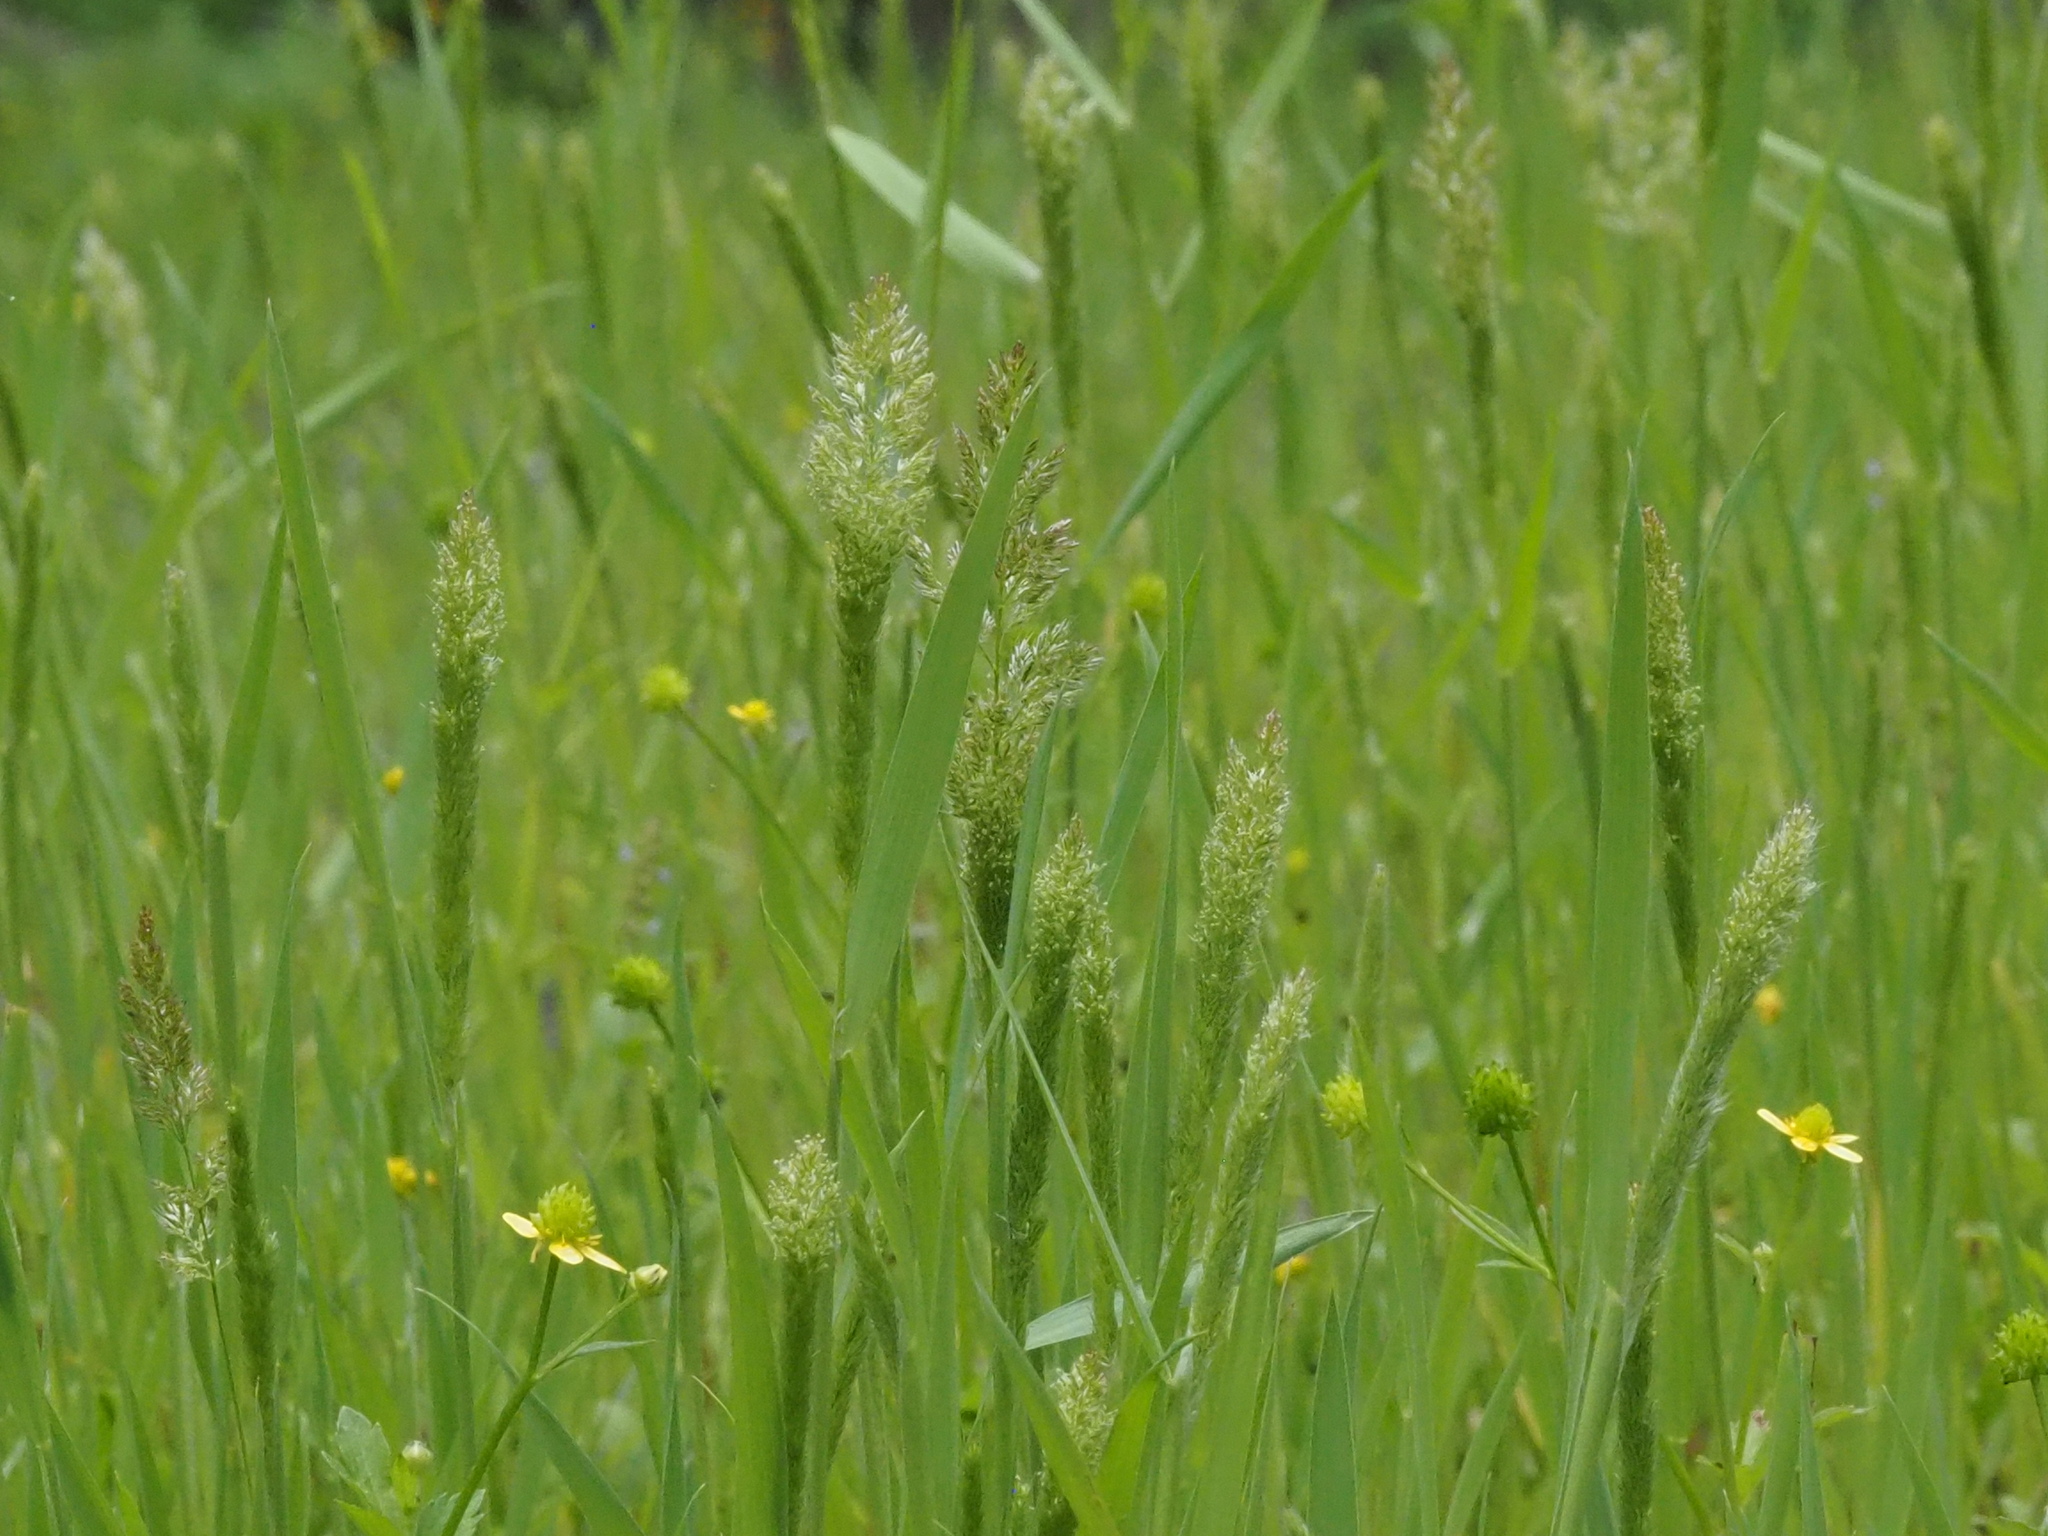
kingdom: Plantae
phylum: Tracheophyta
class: Liliopsida
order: Poales
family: Poaceae
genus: Polypogon
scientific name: Polypogon fugax
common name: Asia minor bluegrass
